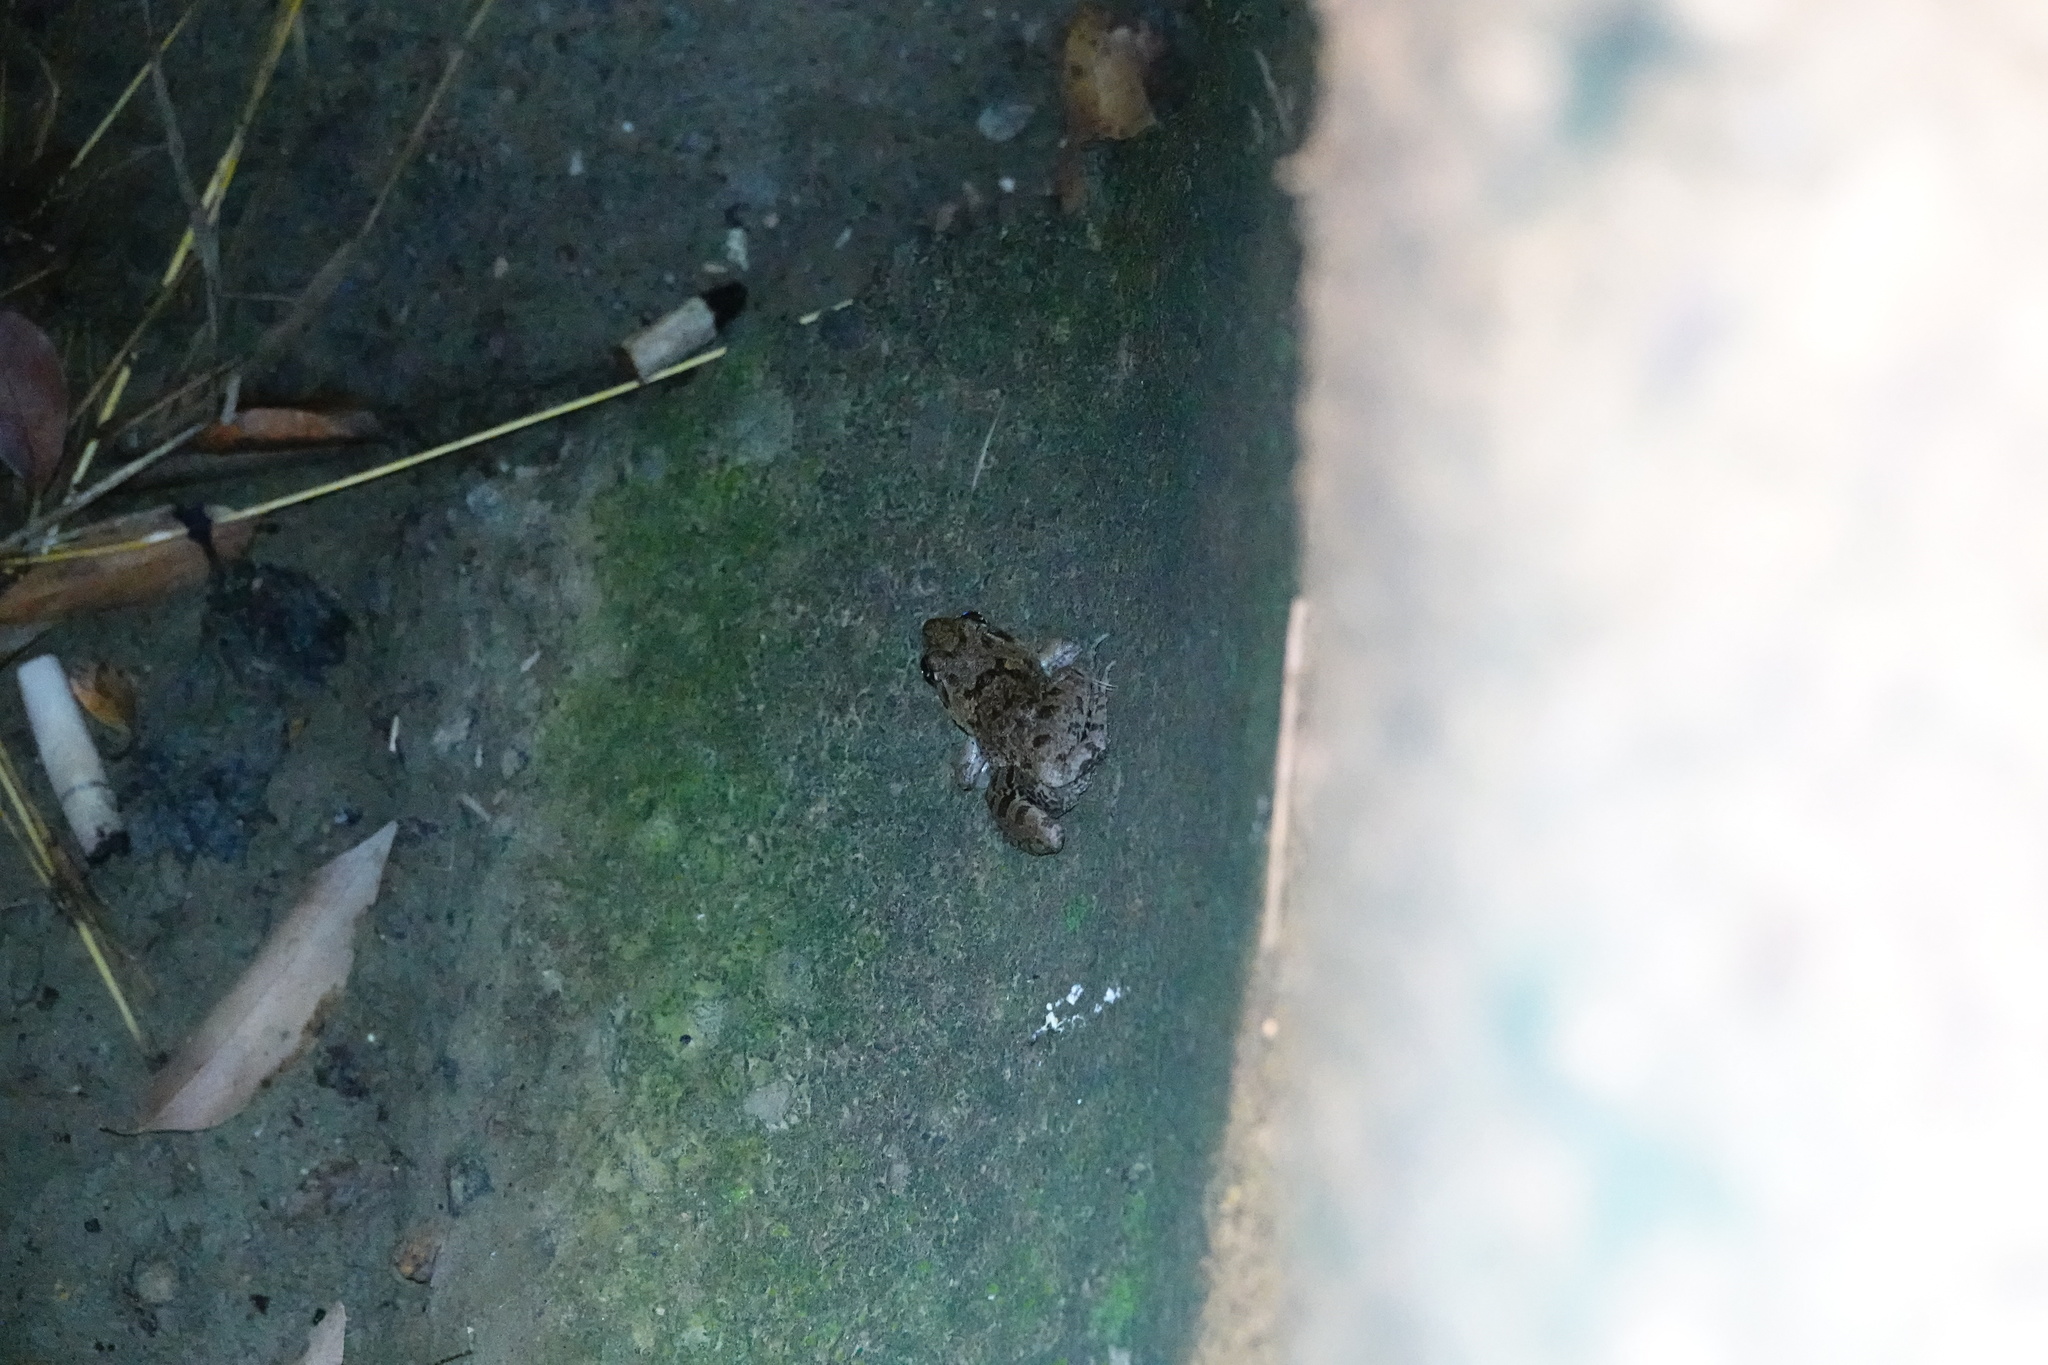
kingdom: Animalia
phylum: Chordata
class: Amphibia
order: Anura
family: Dicroglossidae
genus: Fejervarya
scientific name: Fejervarya limnocharis
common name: Asian grass frog/common pond frog/field frog/grass frog/indian rice frog
